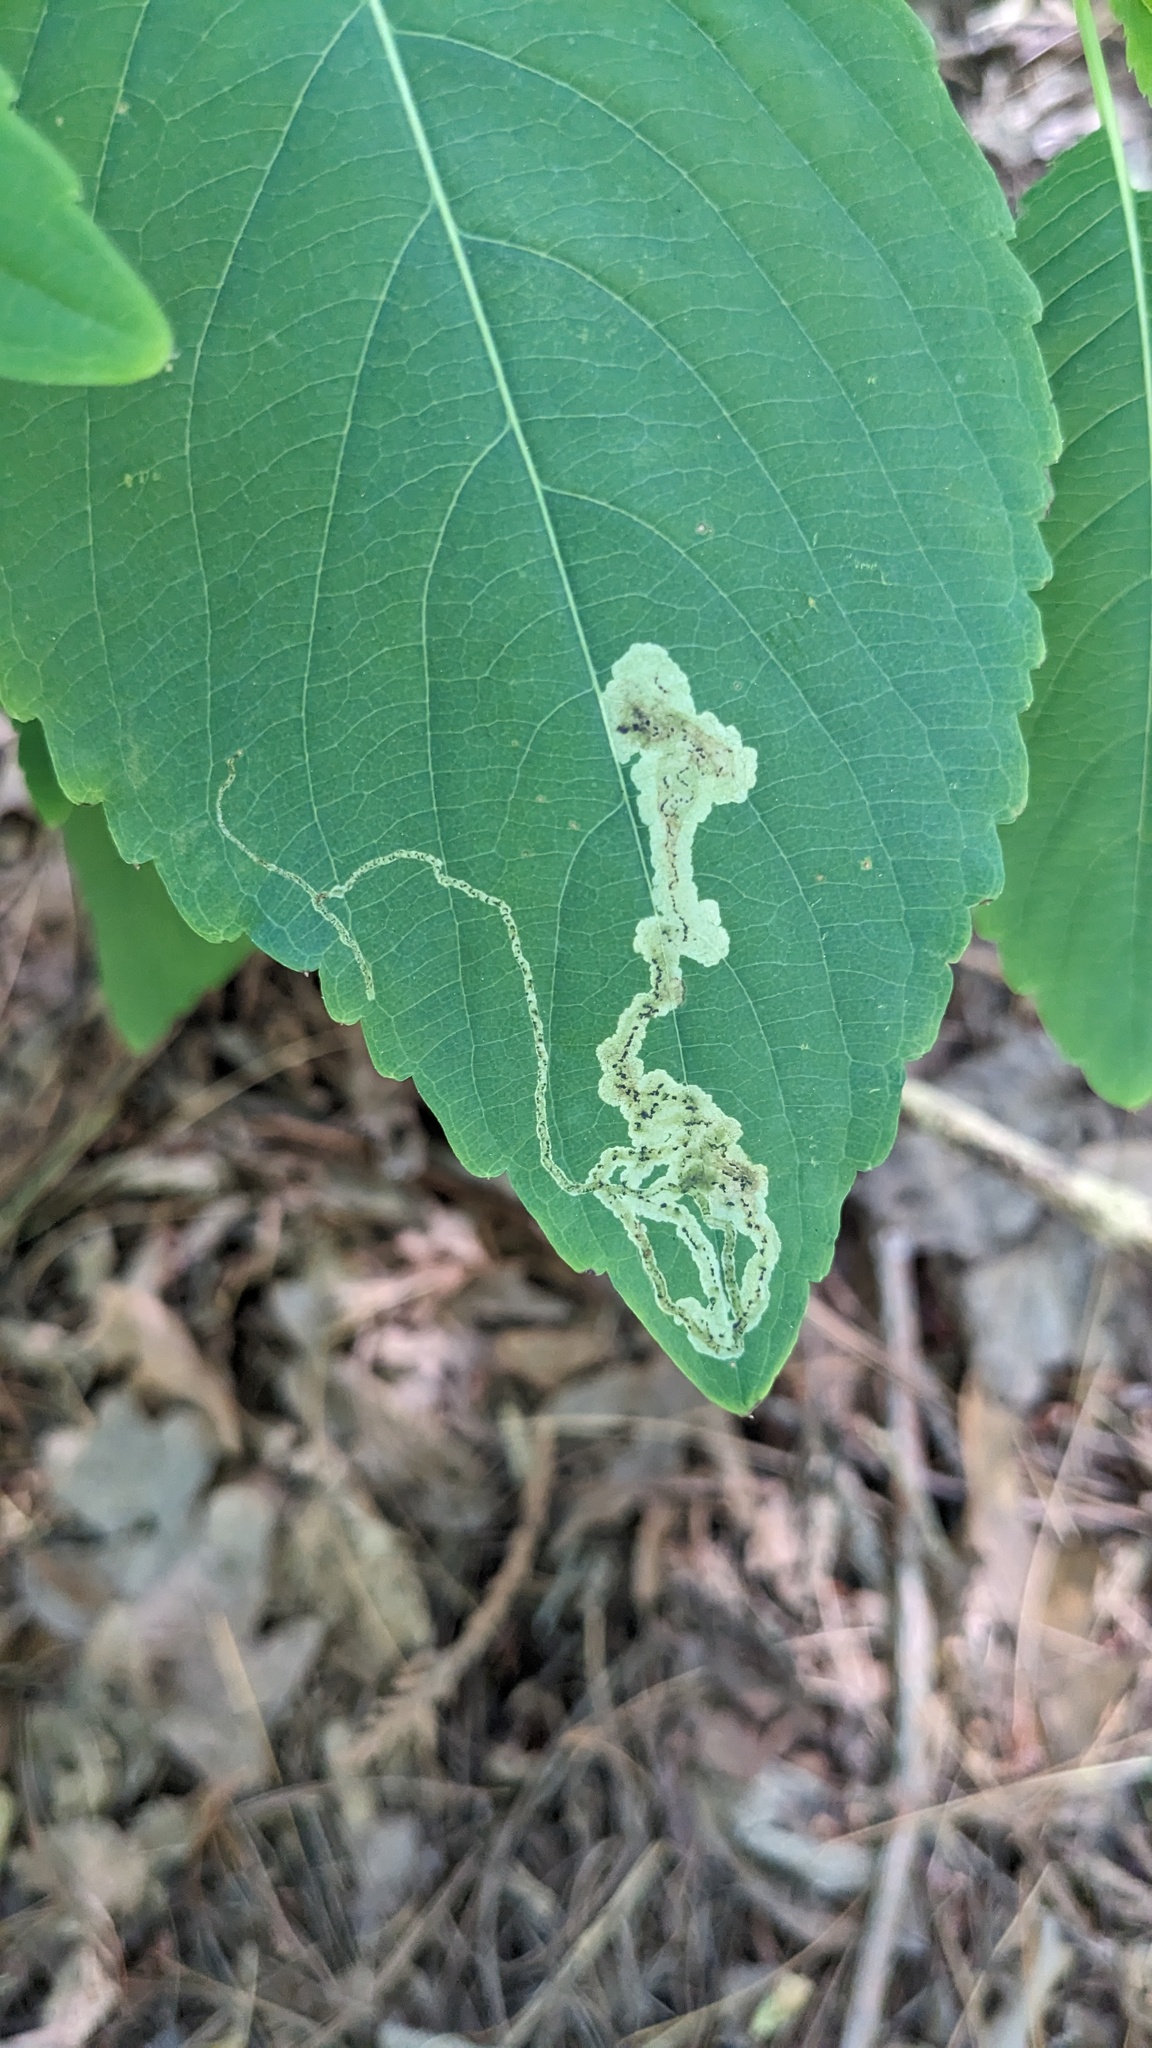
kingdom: Animalia
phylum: Arthropoda
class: Insecta
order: Diptera
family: Agromyzidae
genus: Phytoliriomyza
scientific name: Phytoliriomyza melampyga
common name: Jewelweed leaf-miner fly
